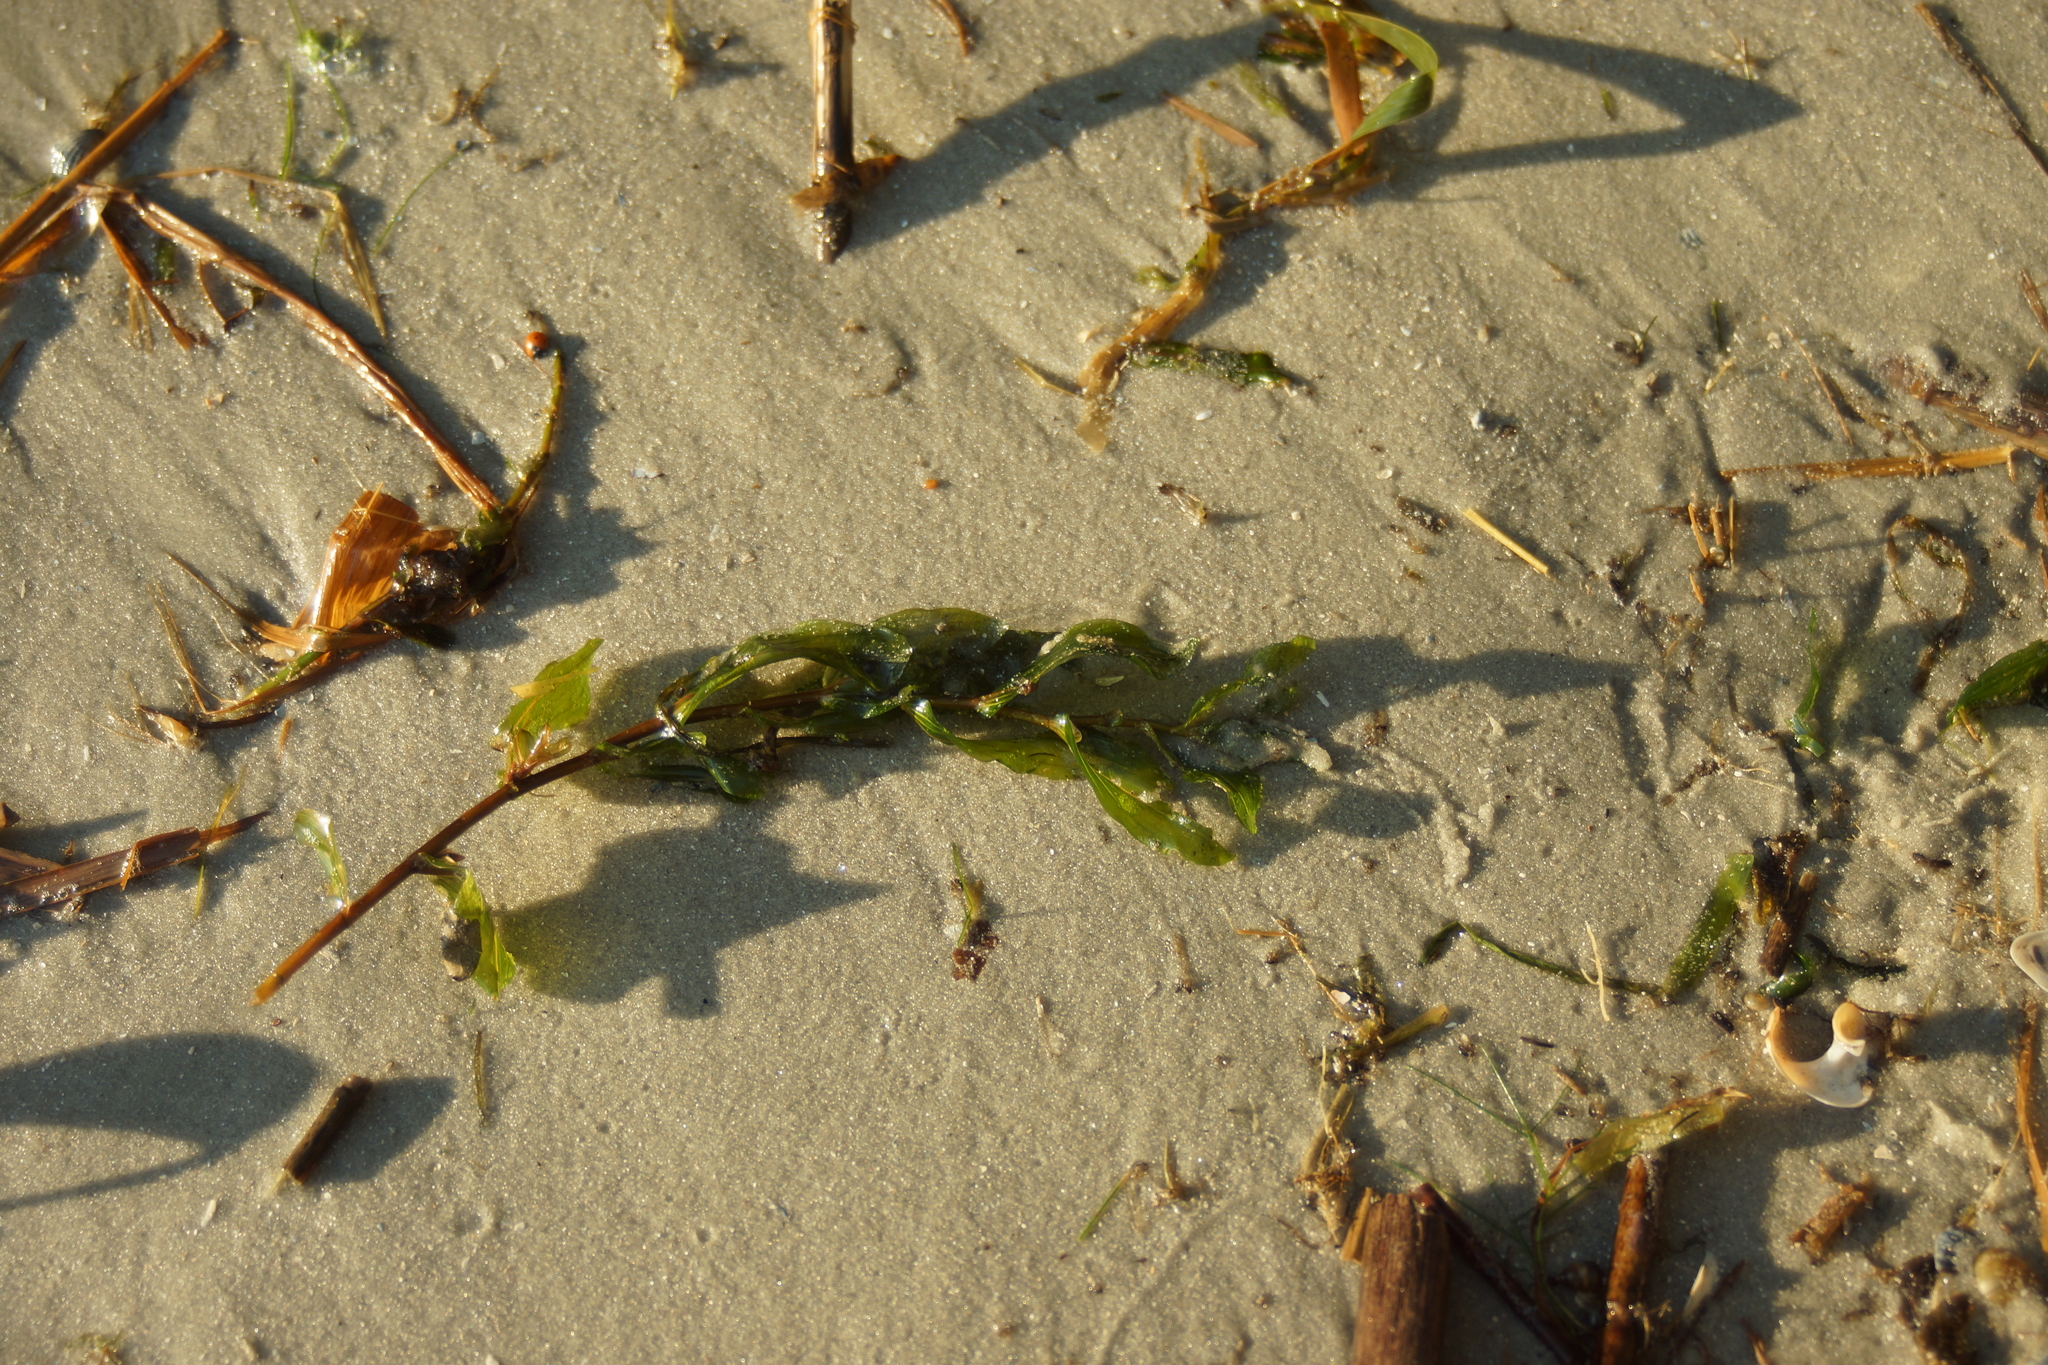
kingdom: Plantae
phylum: Tracheophyta
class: Liliopsida
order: Alismatales
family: Potamogetonaceae
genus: Potamogeton
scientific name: Potamogeton perfoliatus
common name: Perfoliate pondweed
